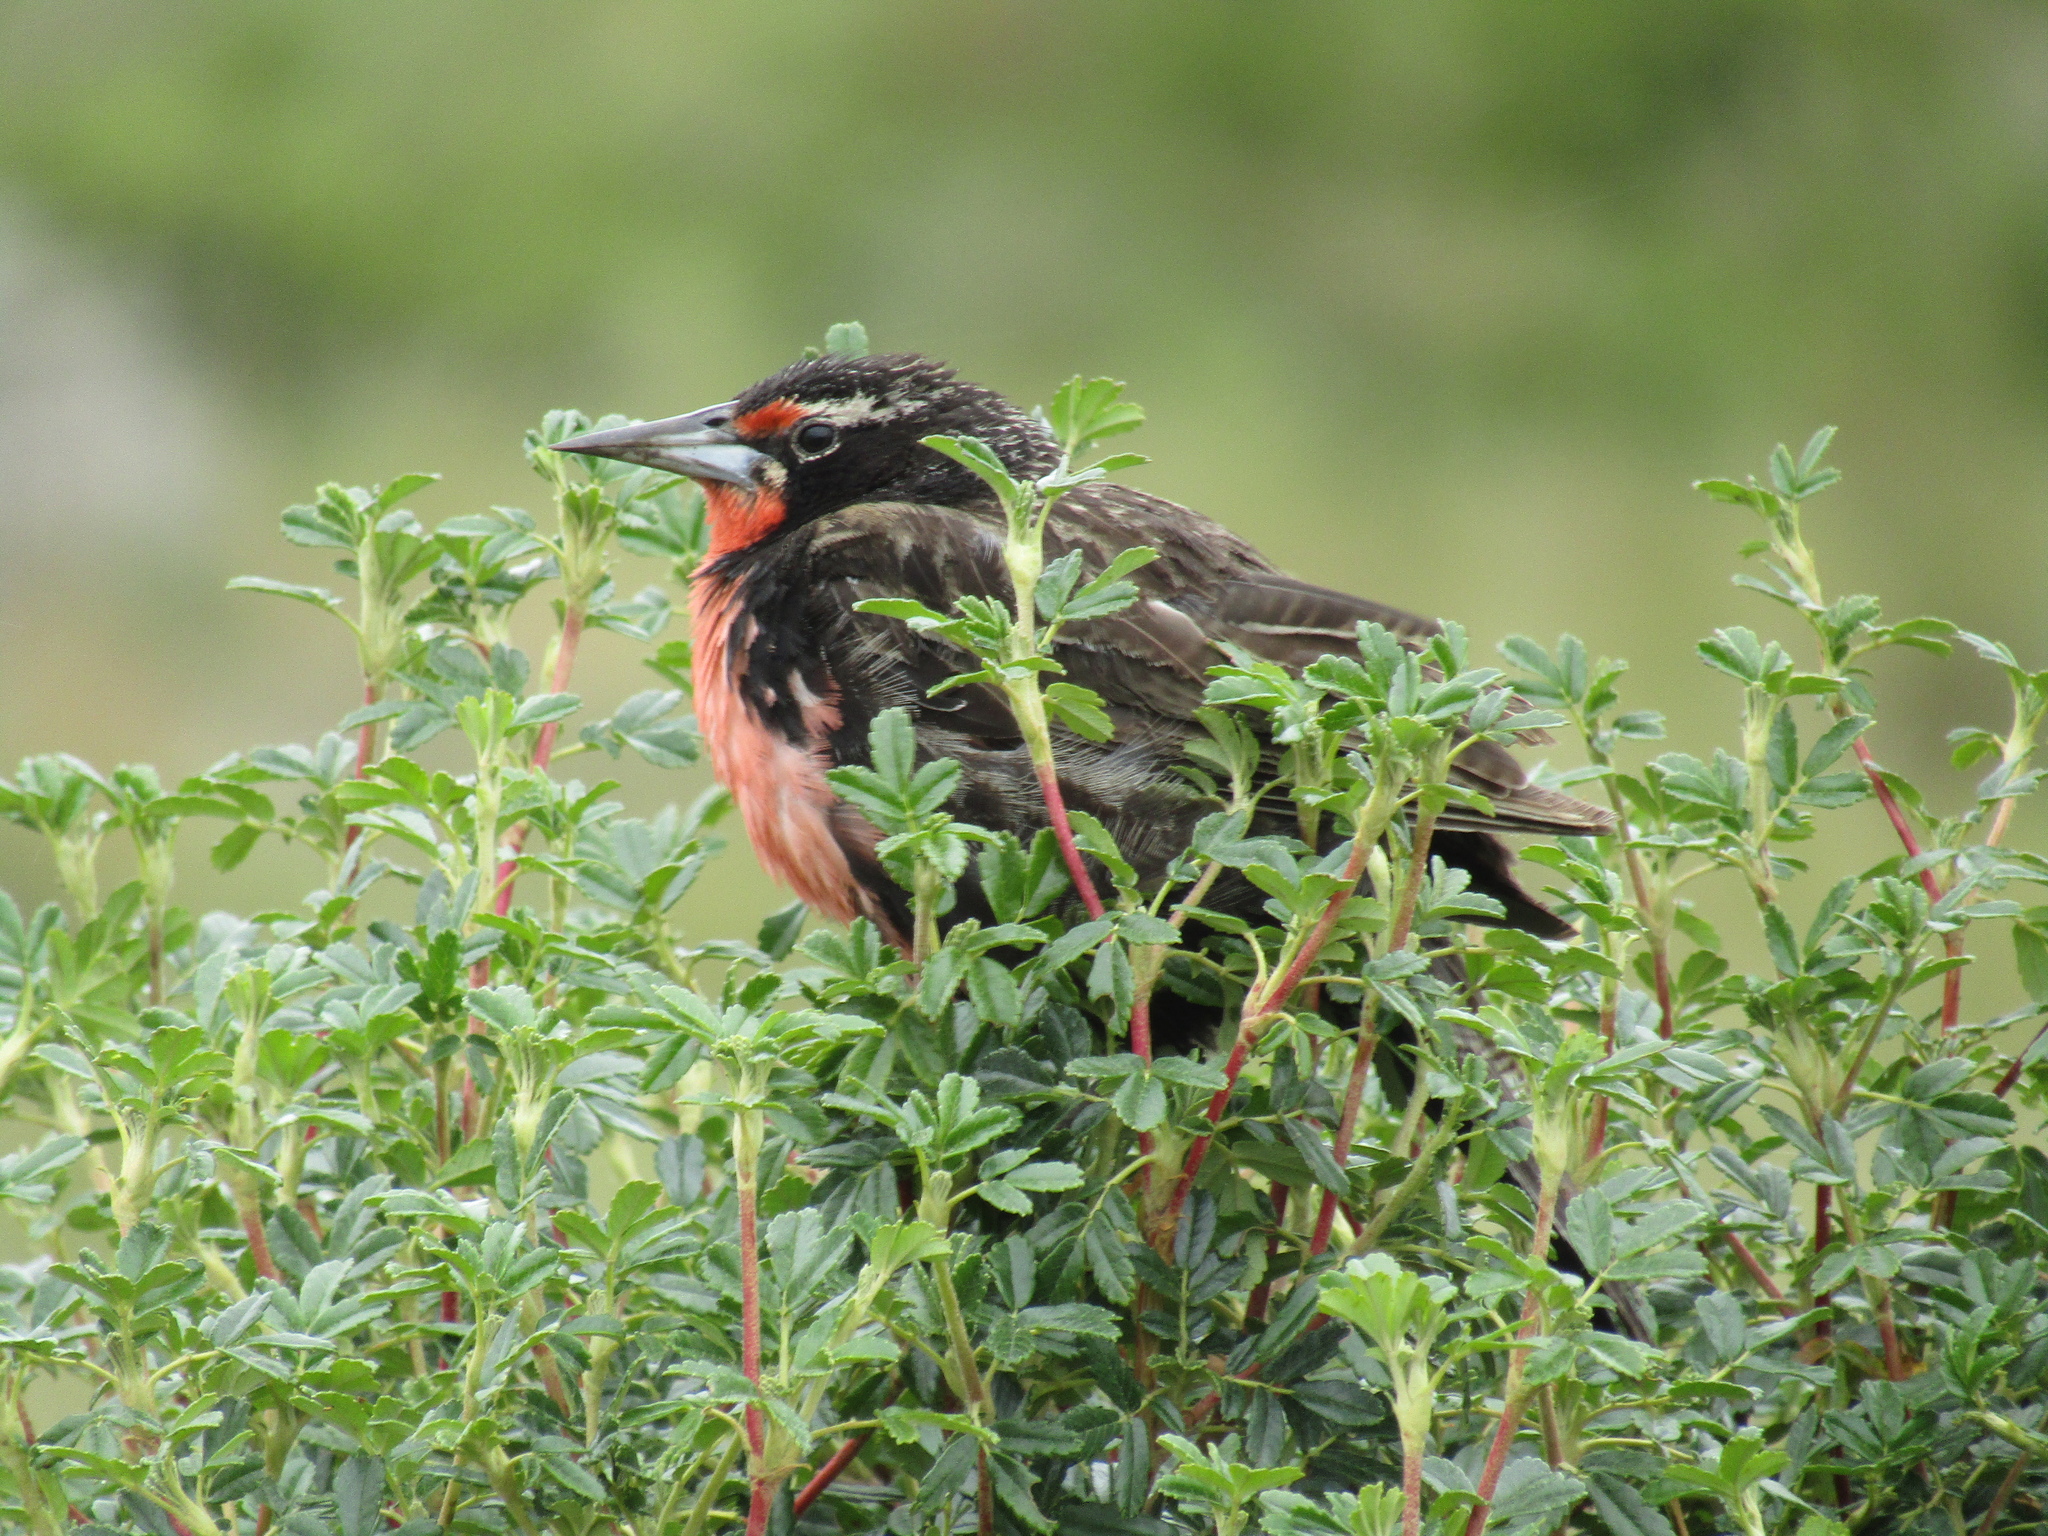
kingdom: Animalia
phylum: Chordata
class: Aves
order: Passeriformes
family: Icteridae
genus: Sturnella
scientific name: Sturnella loyca
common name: Long-tailed meadowlark
